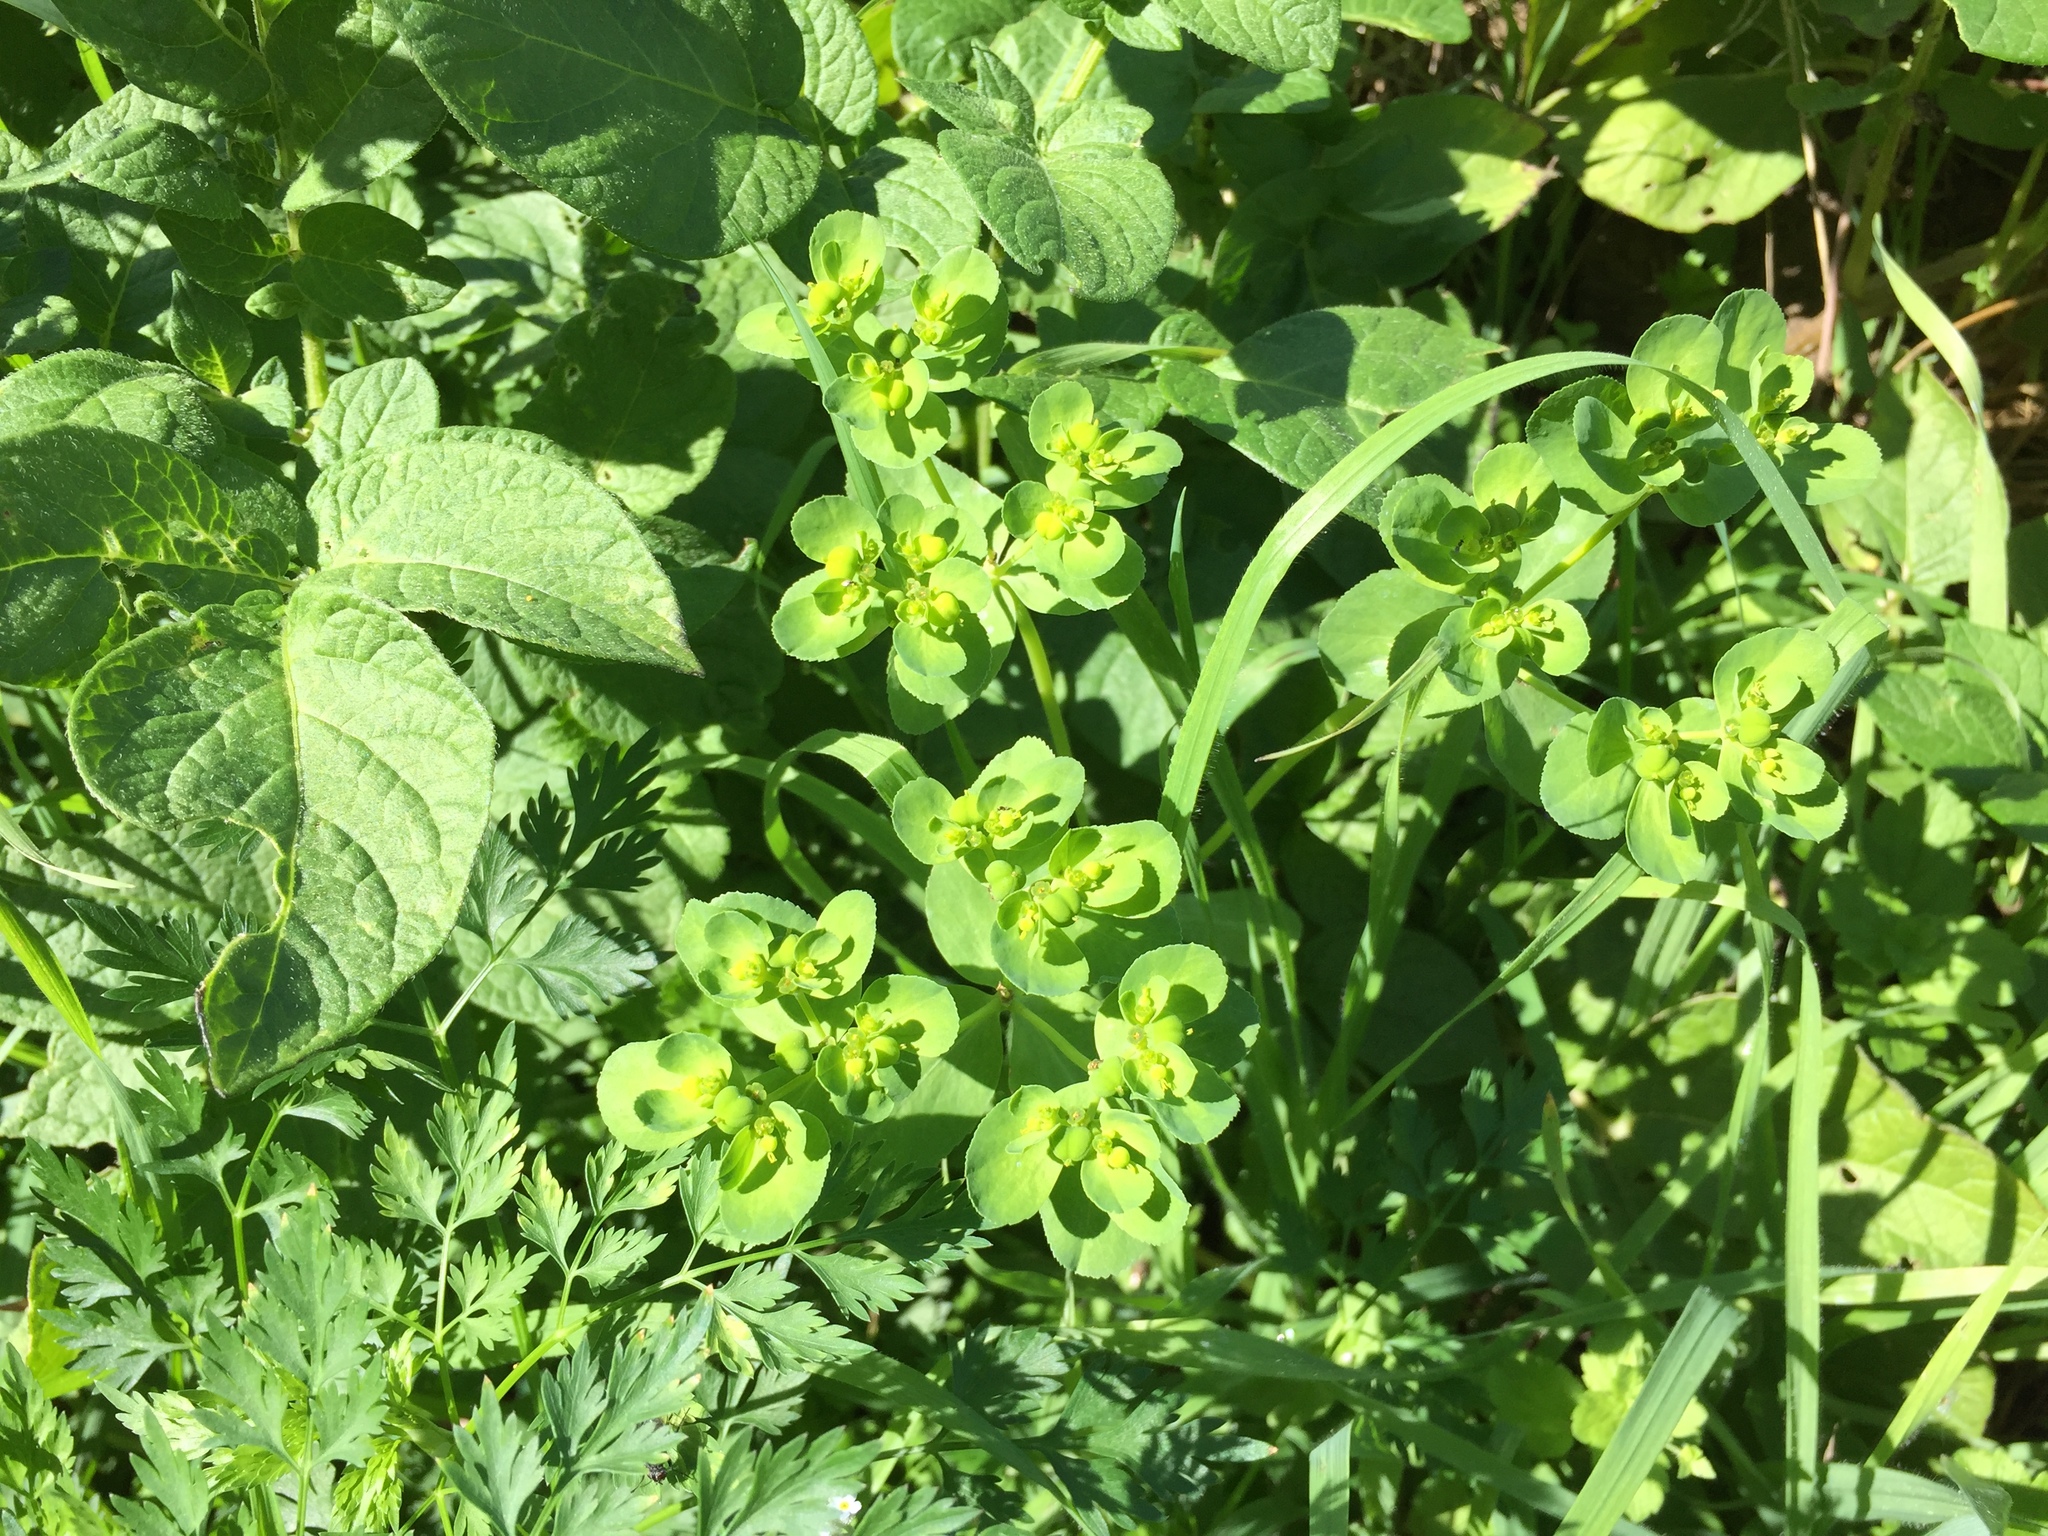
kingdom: Plantae
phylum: Tracheophyta
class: Magnoliopsida
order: Malpighiales
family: Euphorbiaceae
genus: Euphorbia
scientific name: Euphorbia helioscopia
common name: Sun spurge
